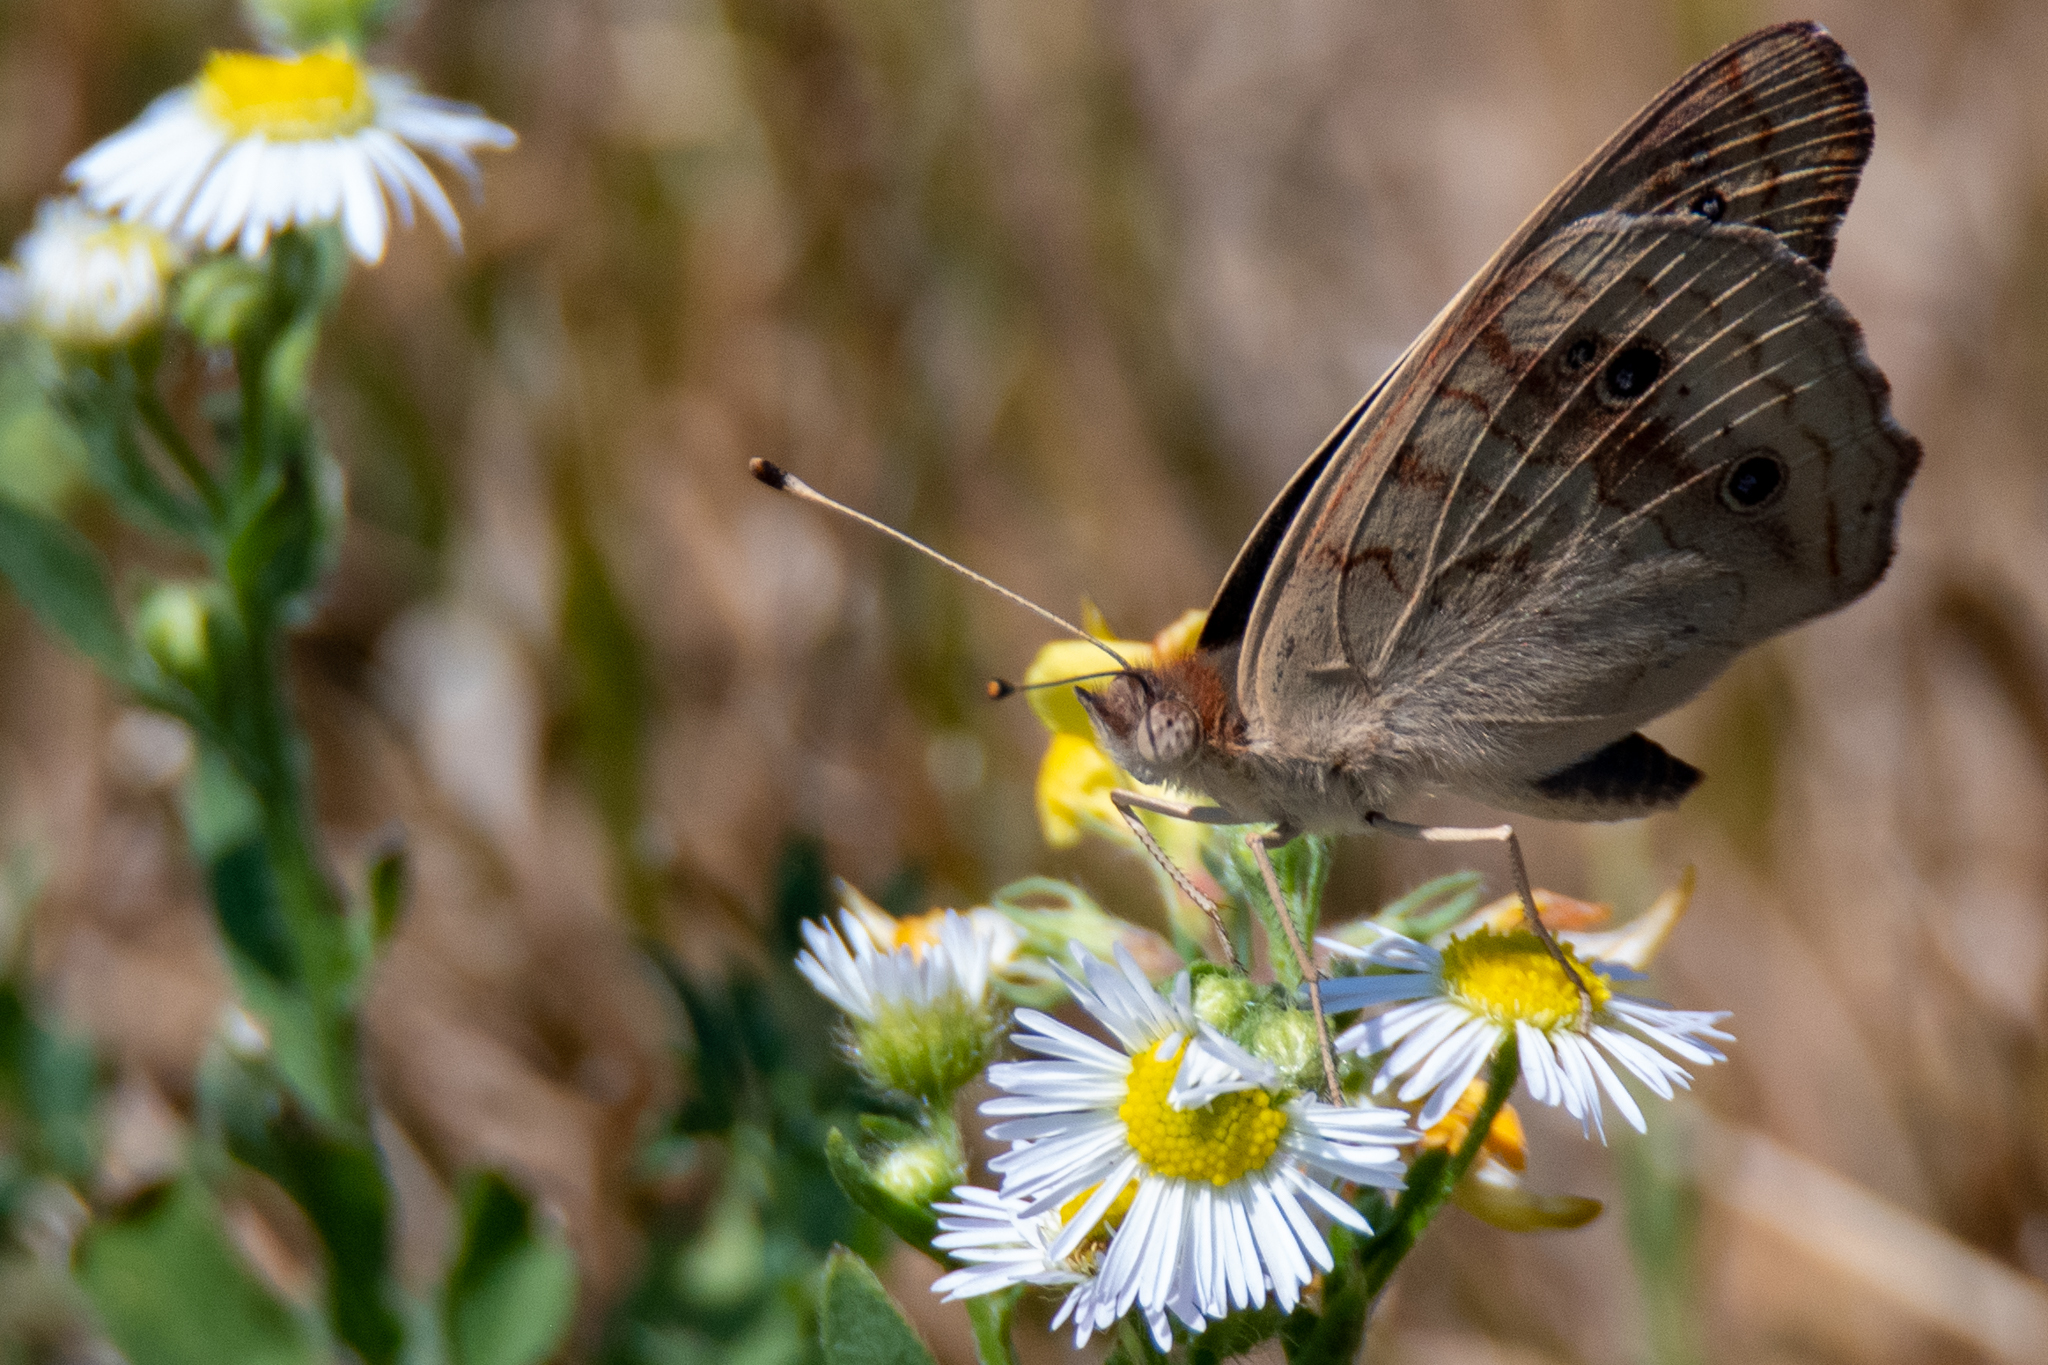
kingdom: Animalia
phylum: Arthropoda
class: Insecta
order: Lepidoptera
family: Nymphalidae
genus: Junonia
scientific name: Junonia coenia
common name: Common buckeye
